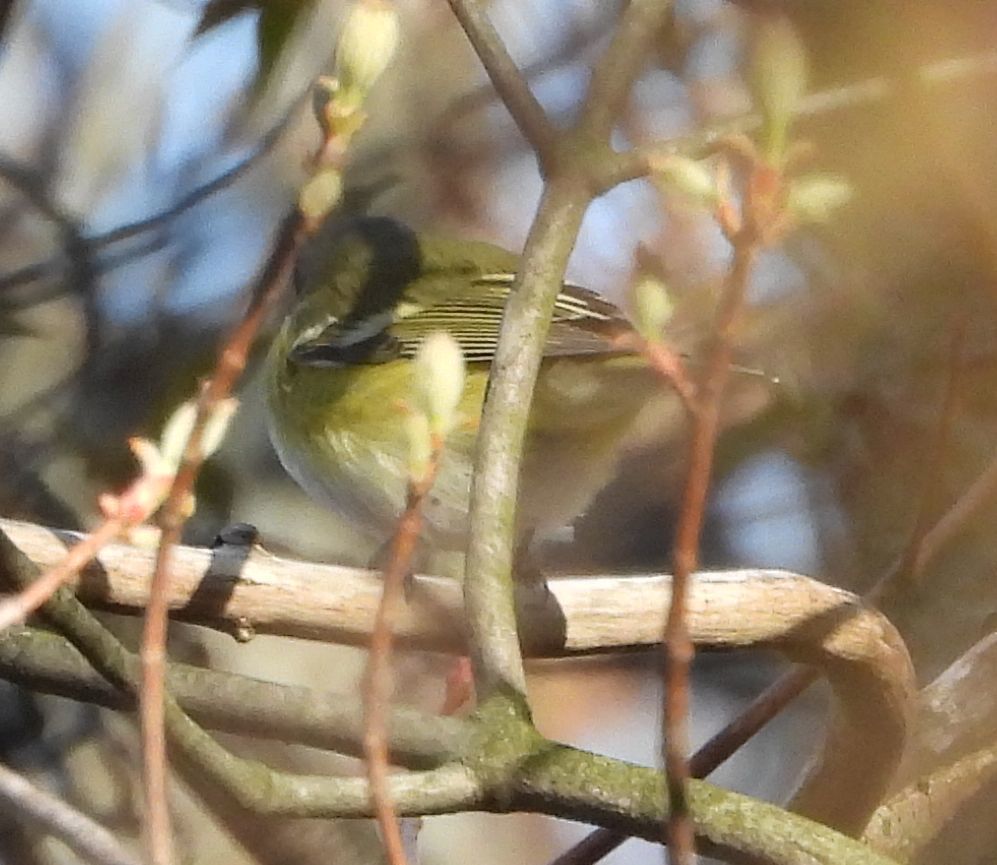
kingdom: Animalia
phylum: Chordata
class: Aves
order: Passeriformes
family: Vireonidae
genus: Vireo
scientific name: Vireo solitarius
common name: Blue-headed vireo
